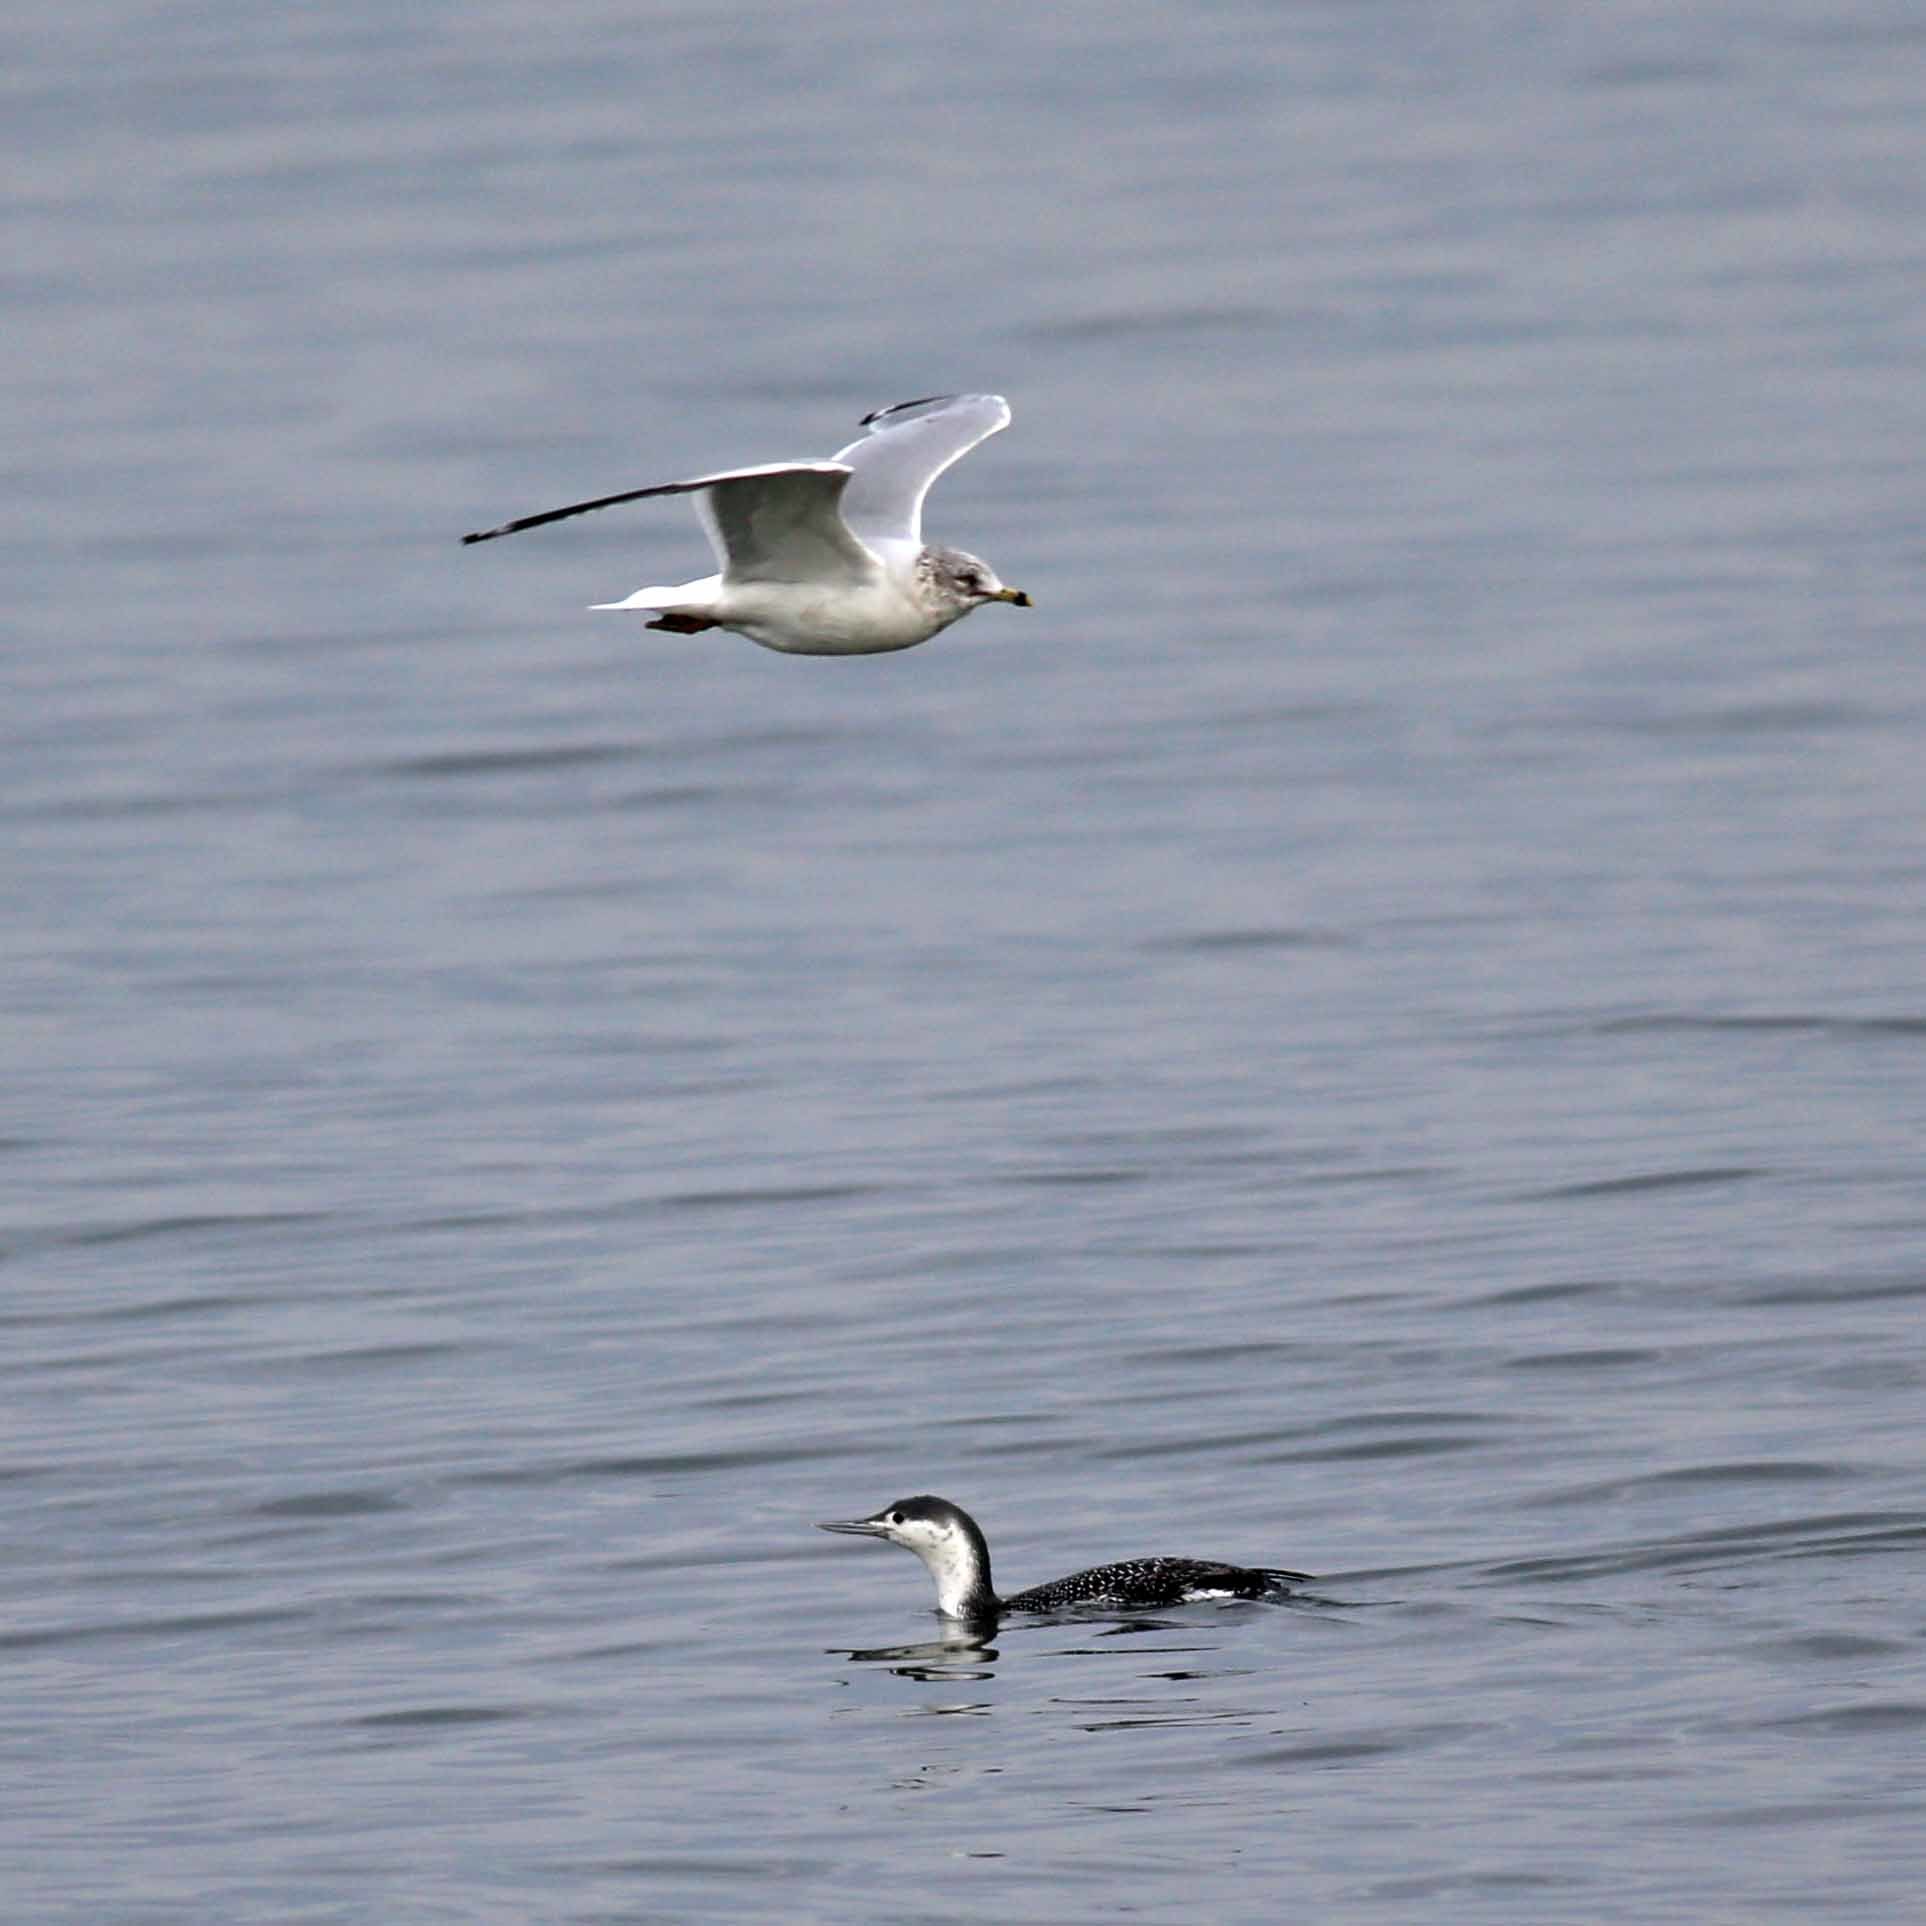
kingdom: Animalia
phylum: Chordata
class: Aves
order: Gaviiformes
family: Gaviidae
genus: Gavia
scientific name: Gavia stellata
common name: Red-throated loon
